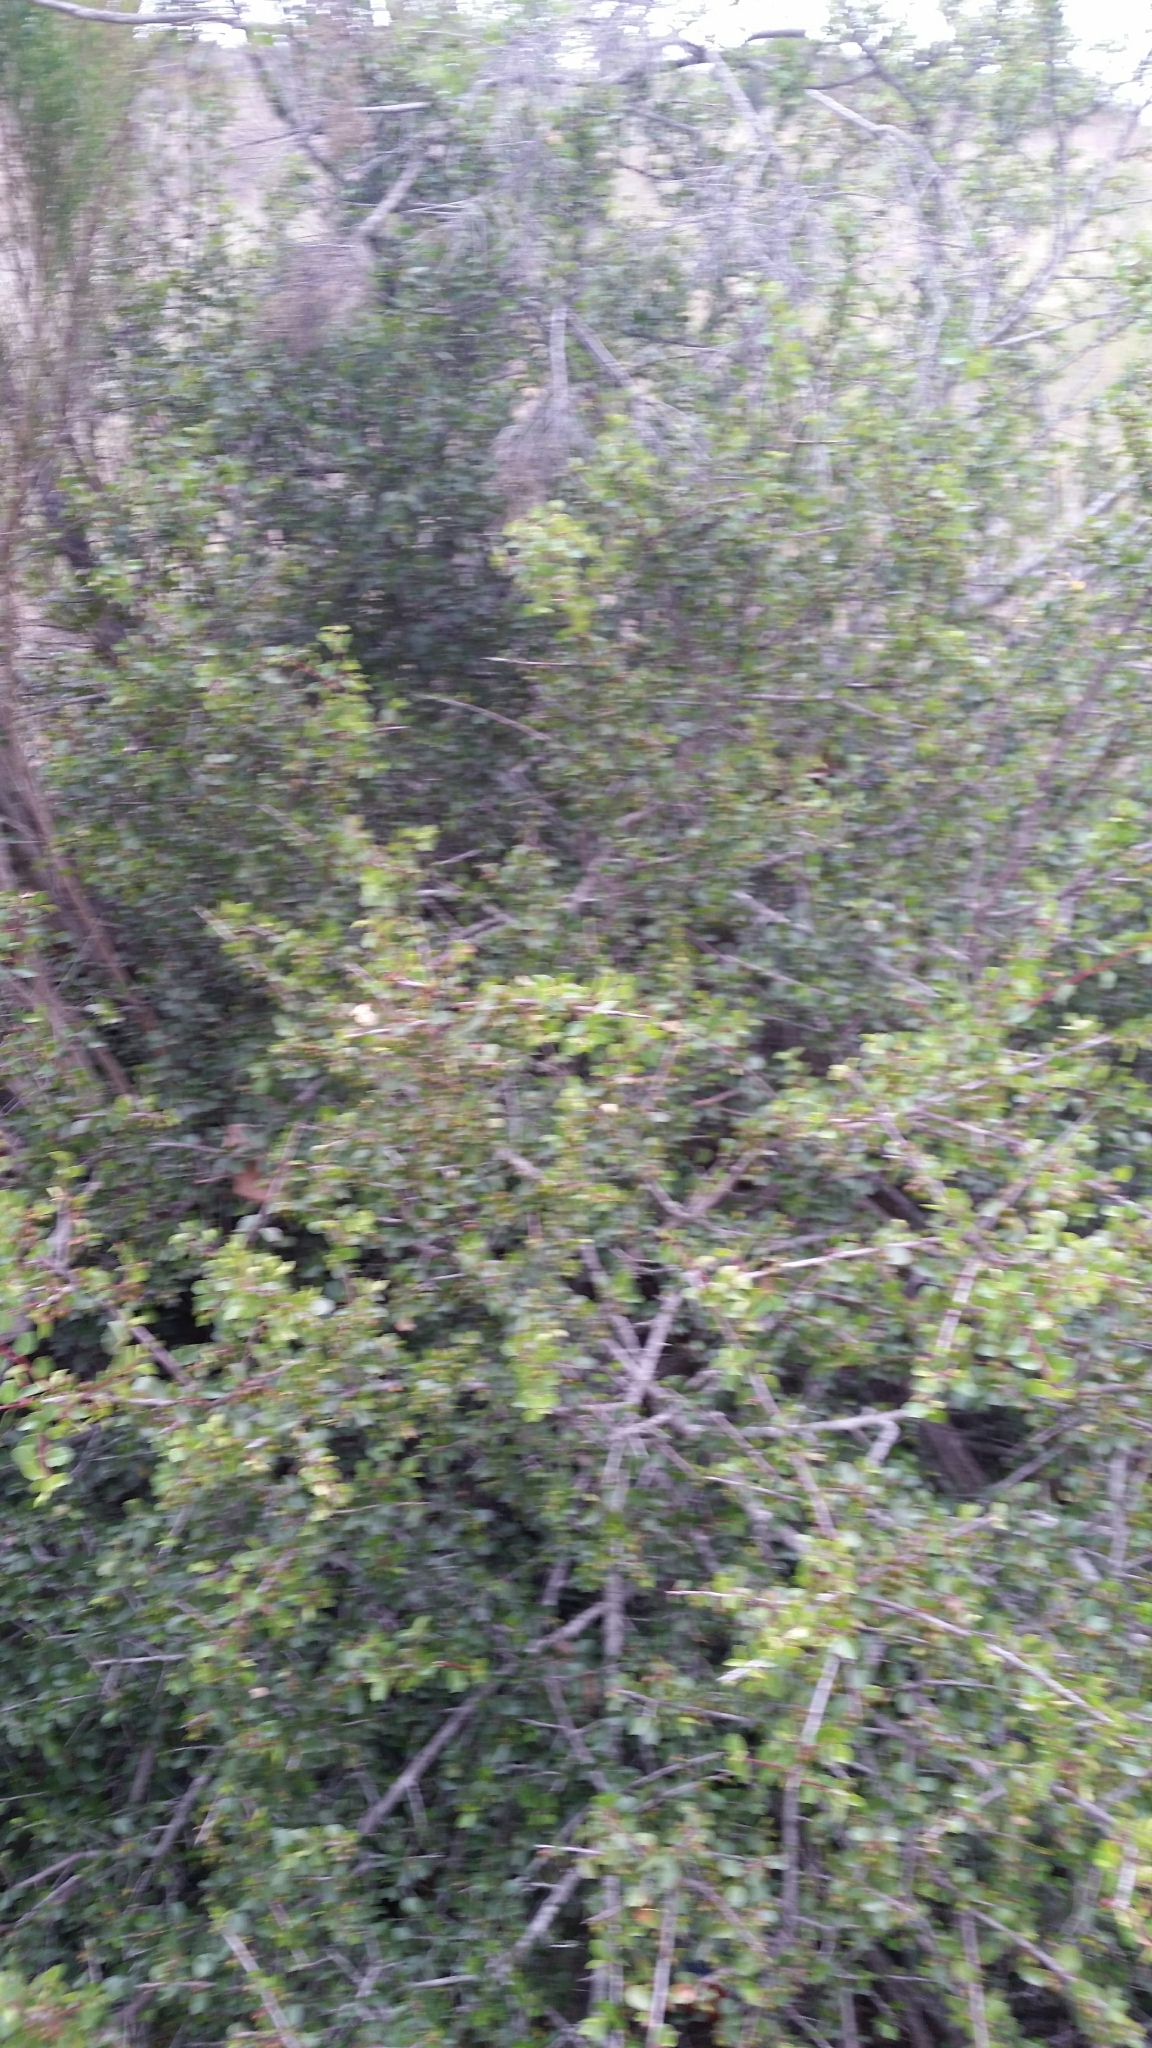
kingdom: Plantae
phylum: Tracheophyta
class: Magnoliopsida
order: Rosales
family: Rhamnaceae
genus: Endotropis
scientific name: Endotropis crocea
